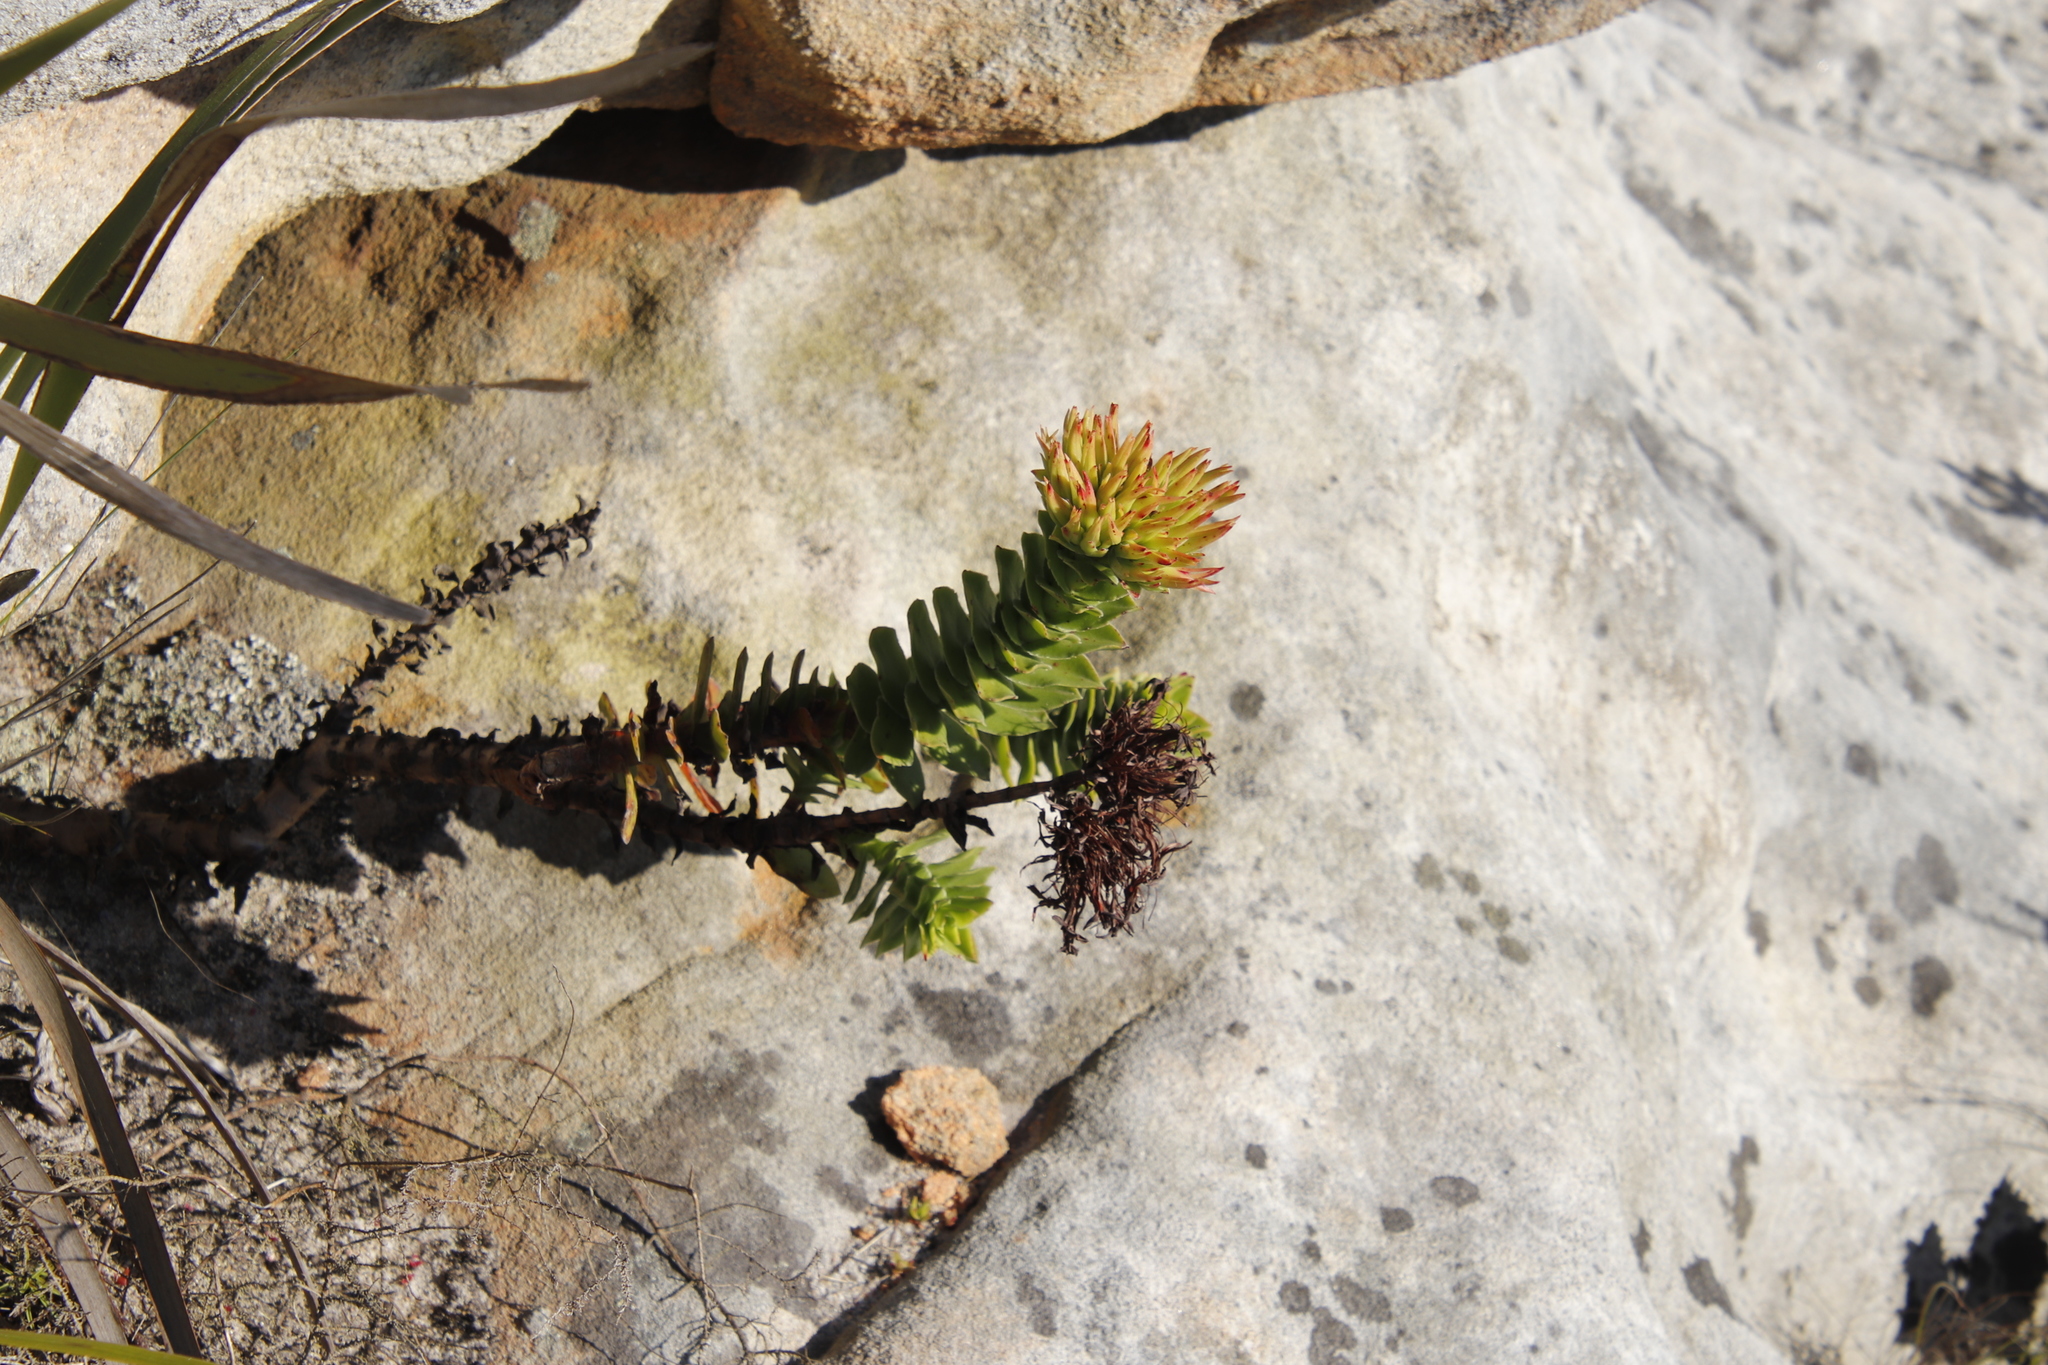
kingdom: Plantae
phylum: Tracheophyta
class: Magnoliopsida
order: Saxifragales
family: Crassulaceae
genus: Crassula
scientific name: Crassula coccinea
